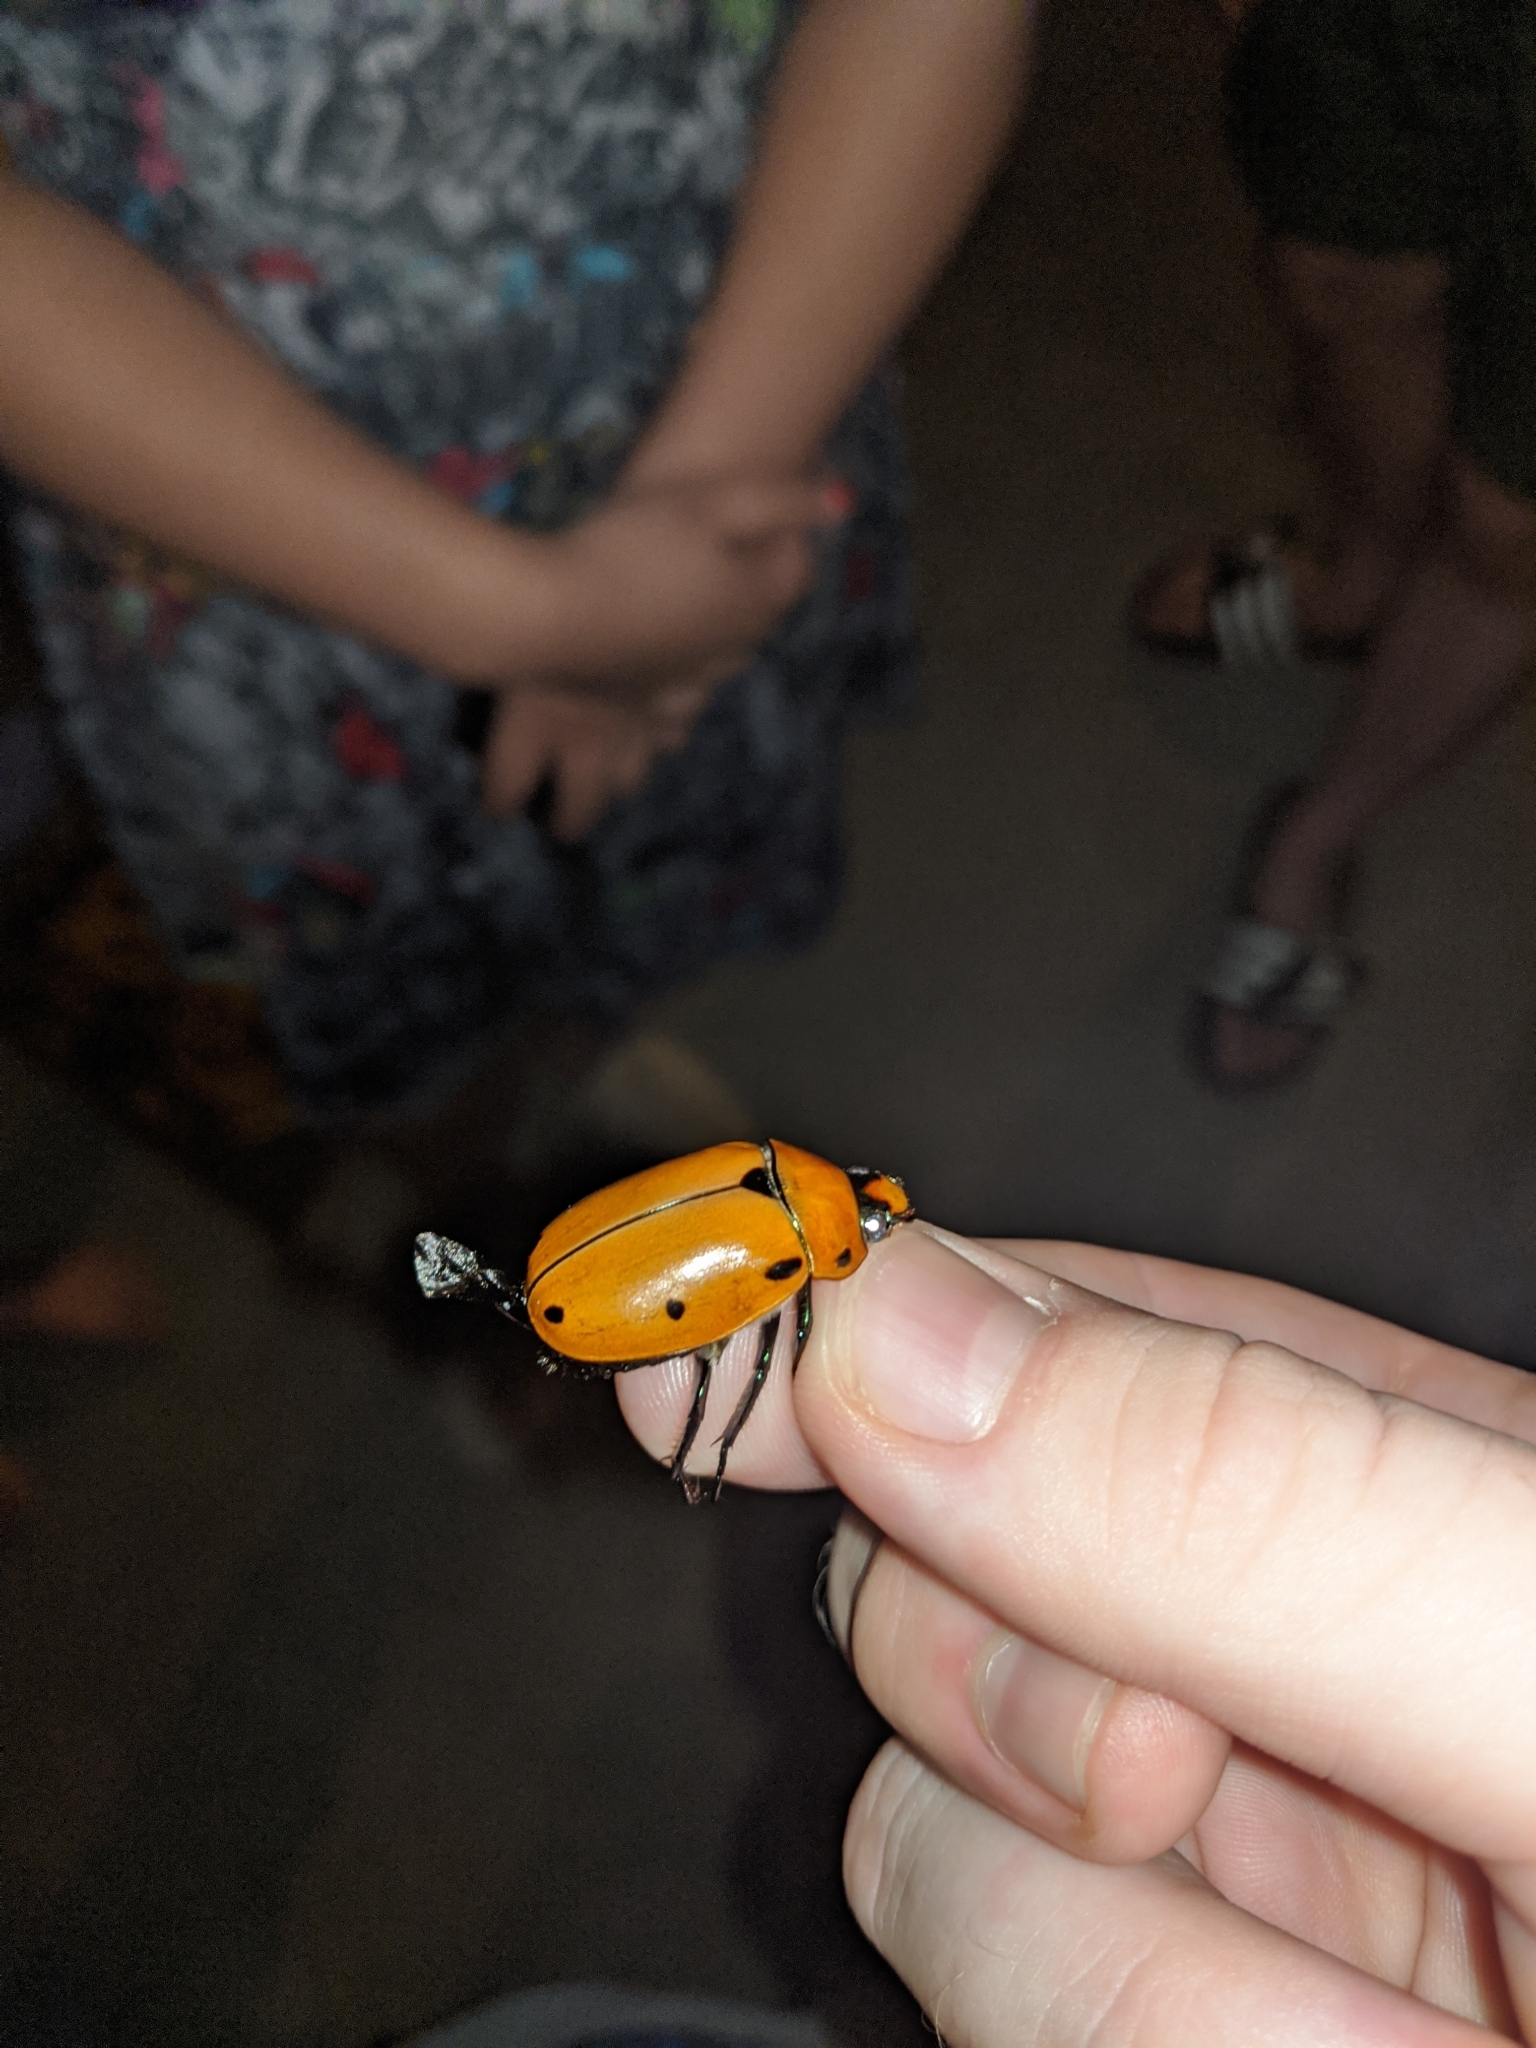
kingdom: Animalia
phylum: Arthropoda
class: Insecta
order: Coleoptera
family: Scarabaeidae
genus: Pelidnota
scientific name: Pelidnota punctata
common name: Grapevine beetle
